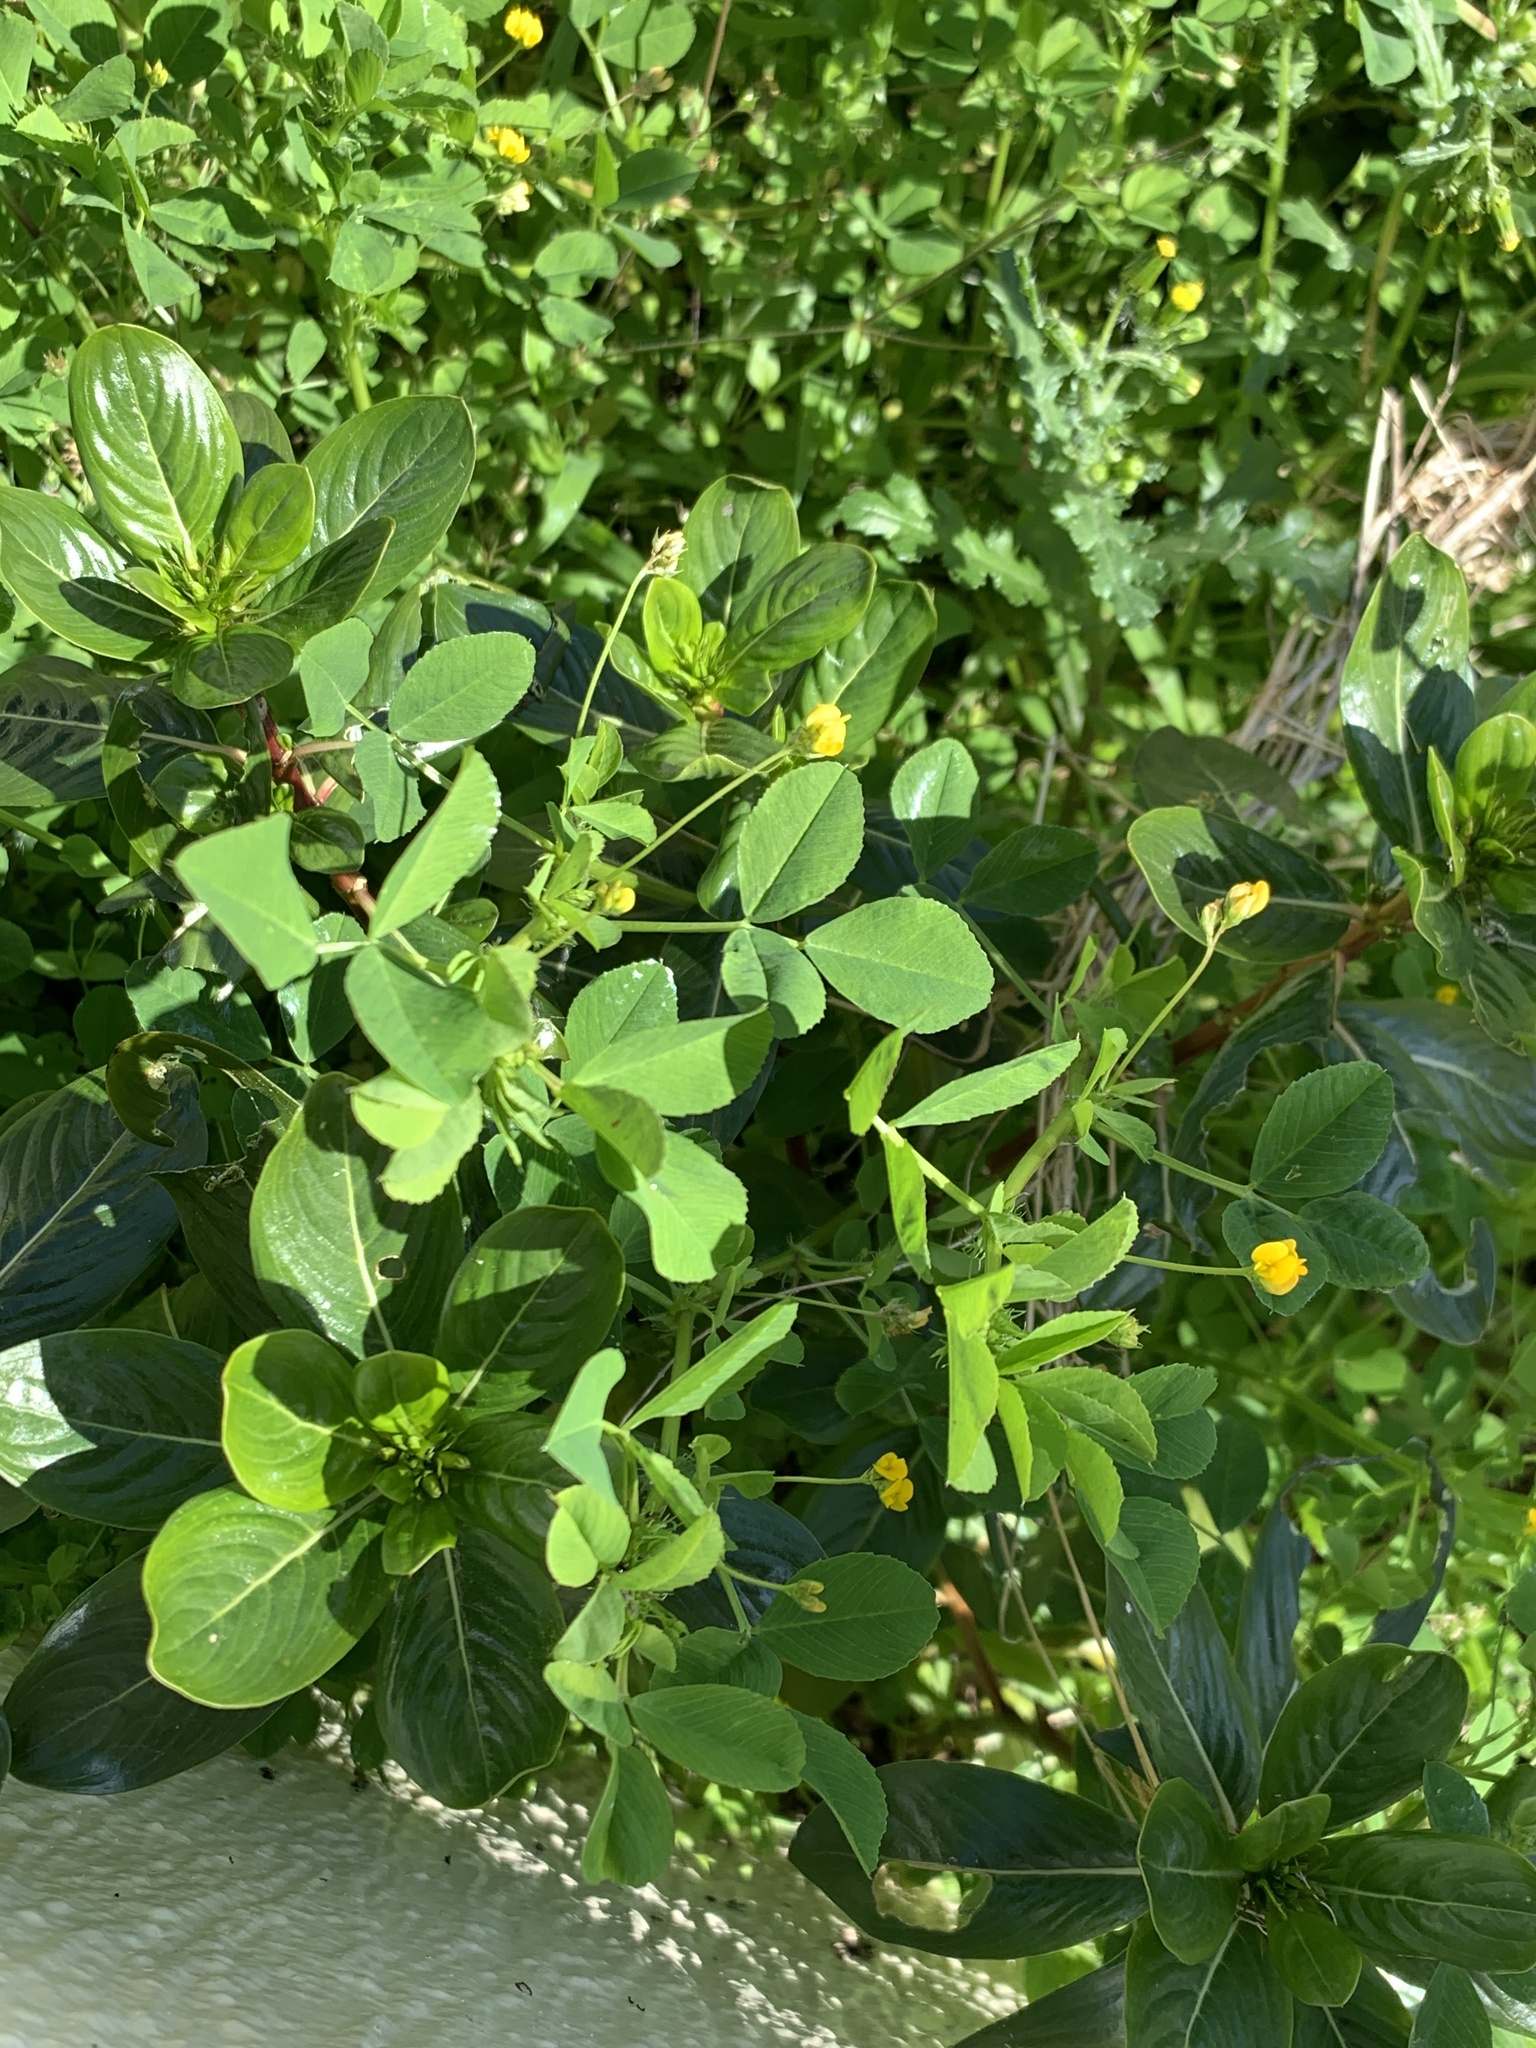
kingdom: Plantae
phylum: Tracheophyta
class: Magnoliopsida
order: Fabales
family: Fabaceae
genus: Medicago
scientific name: Medicago polymorpha
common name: Burclover
